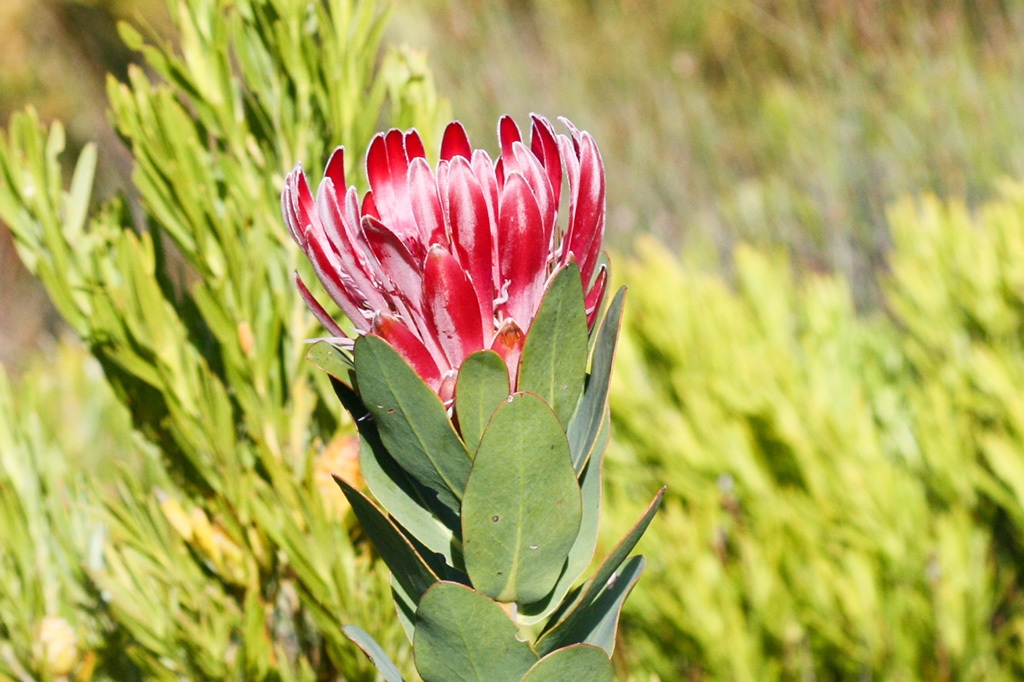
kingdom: Plantae
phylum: Tracheophyta
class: Magnoliopsida
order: Proteales
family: Proteaceae
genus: Protea
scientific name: Protea compacta
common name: Bot river protea
